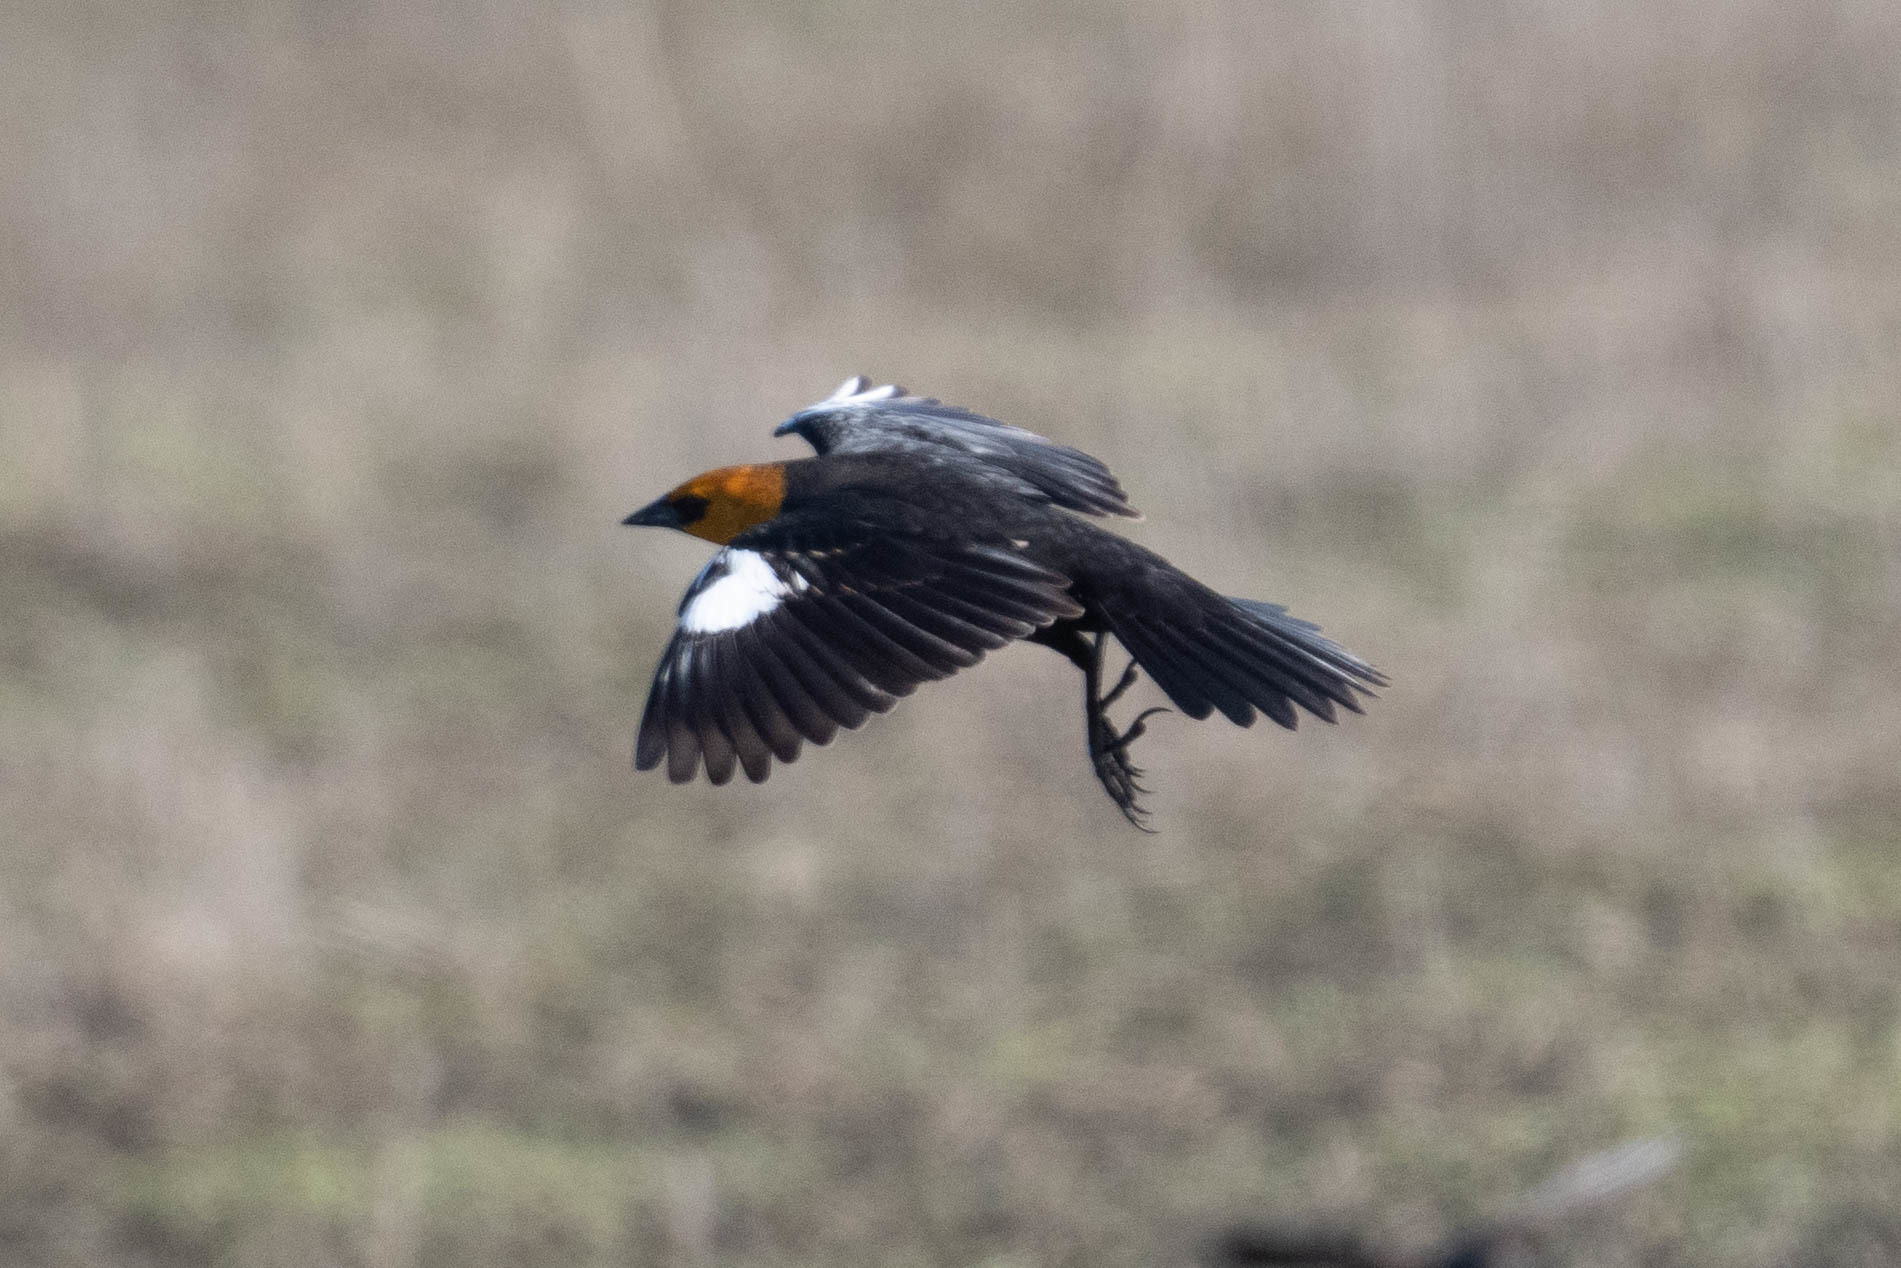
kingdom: Animalia
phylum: Chordata
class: Aves
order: Passeriformes
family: Icteridae
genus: Xanthocephalus
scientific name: Xanthocephalus xanthocephalus
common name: Yellow-headed blackbird
